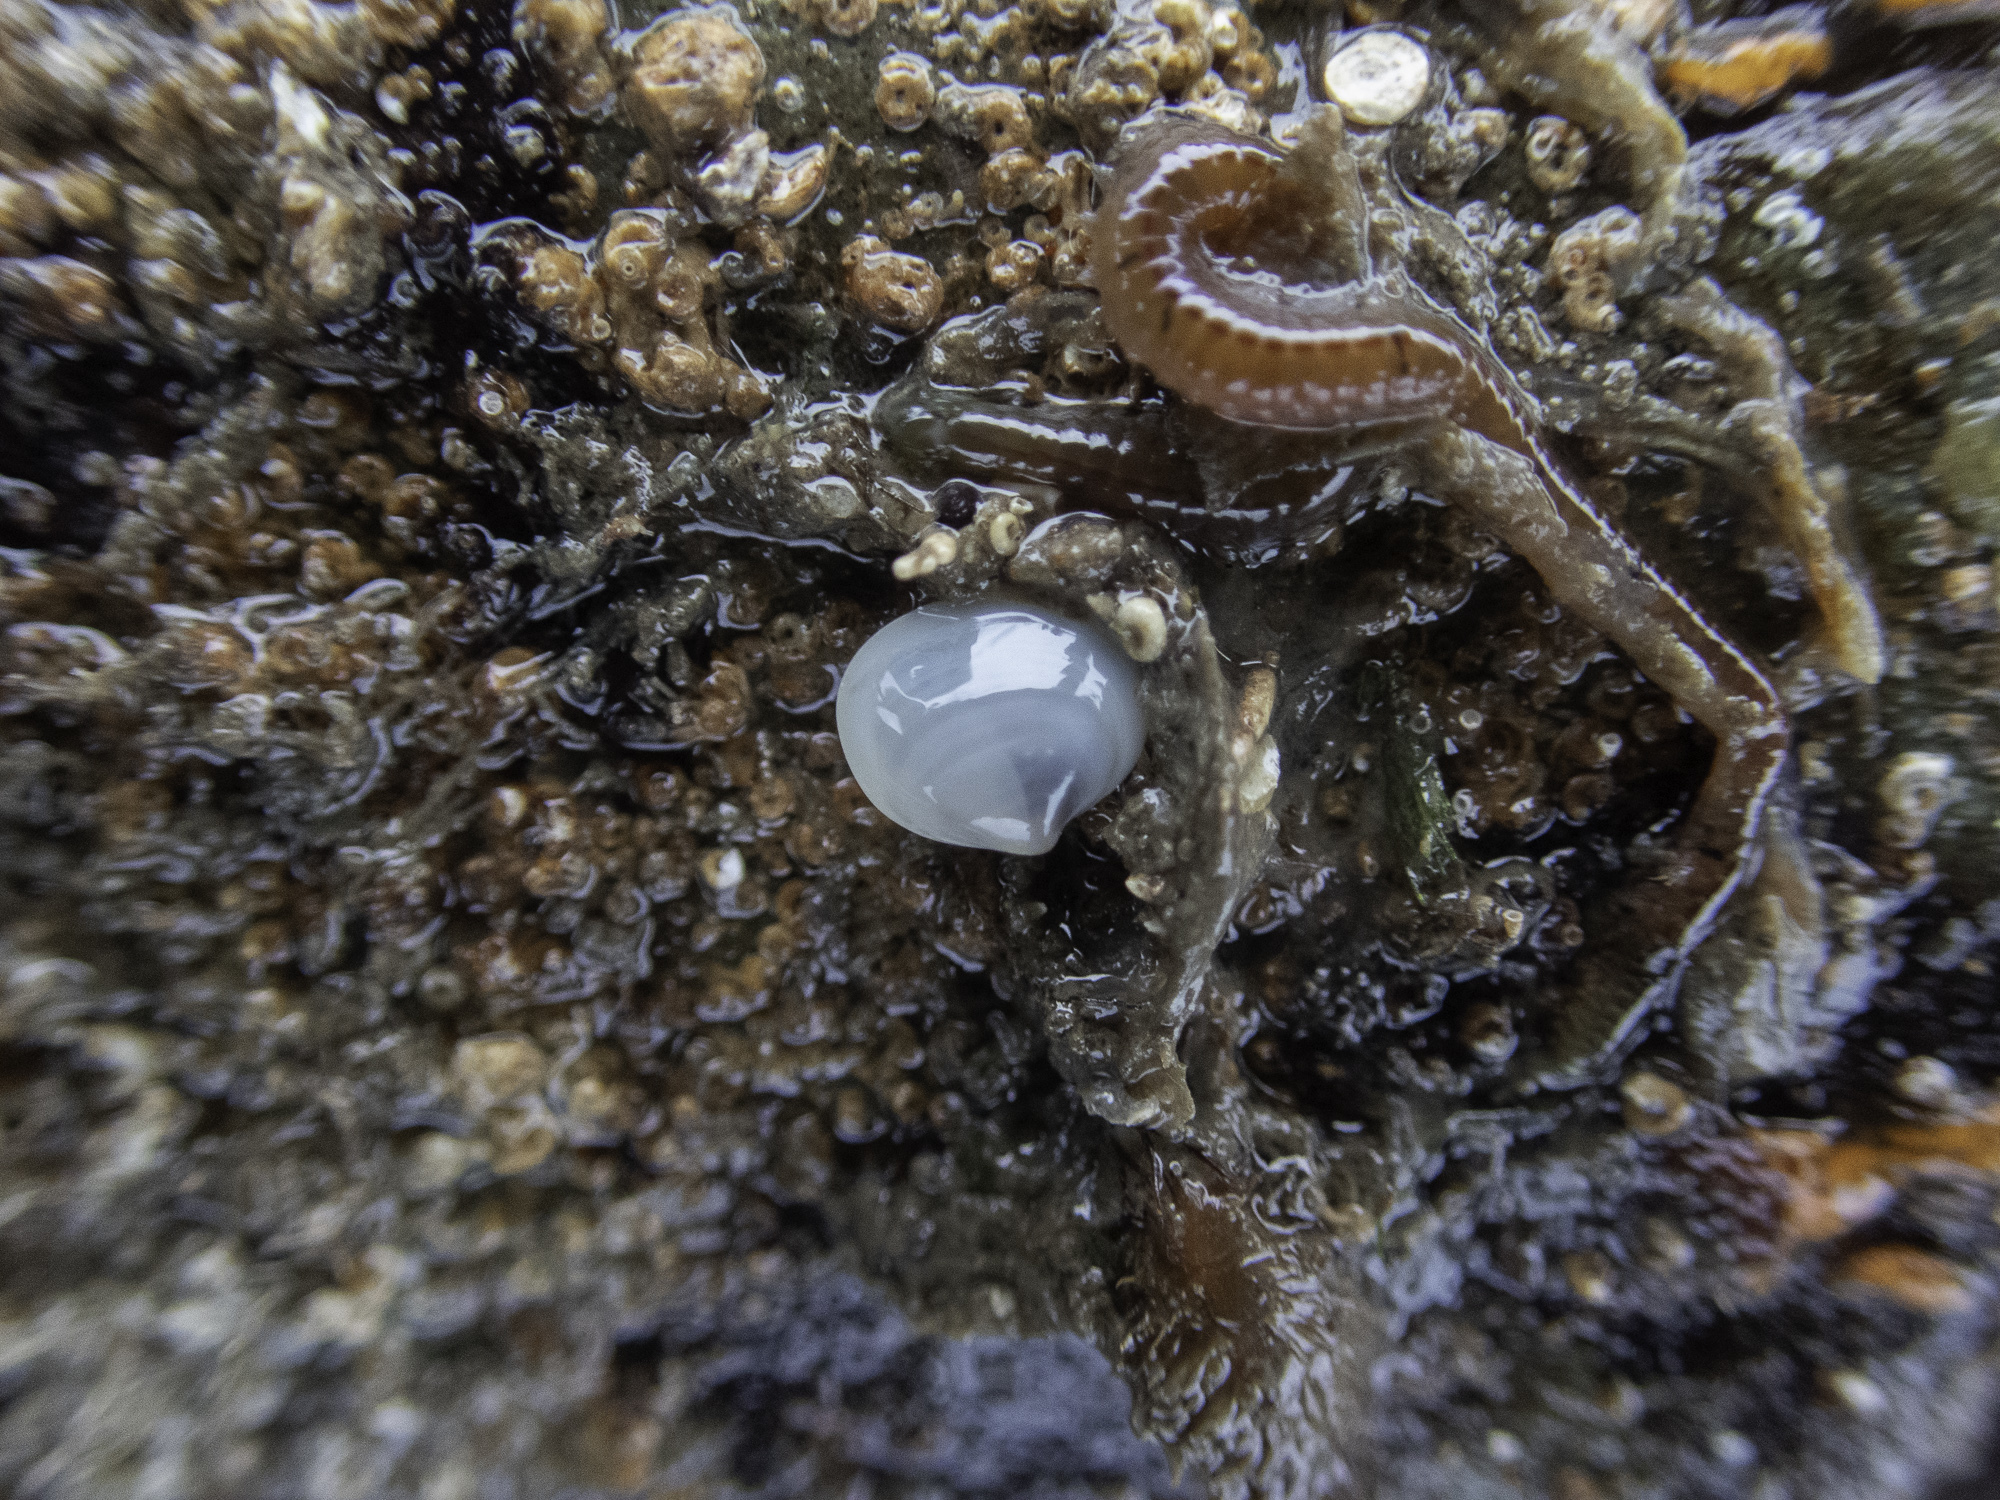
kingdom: Animalia
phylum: Mollusca
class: Bivalvia
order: Galeommatida
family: Lasaeidae
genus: Kellia
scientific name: Kellia suborbicularis
